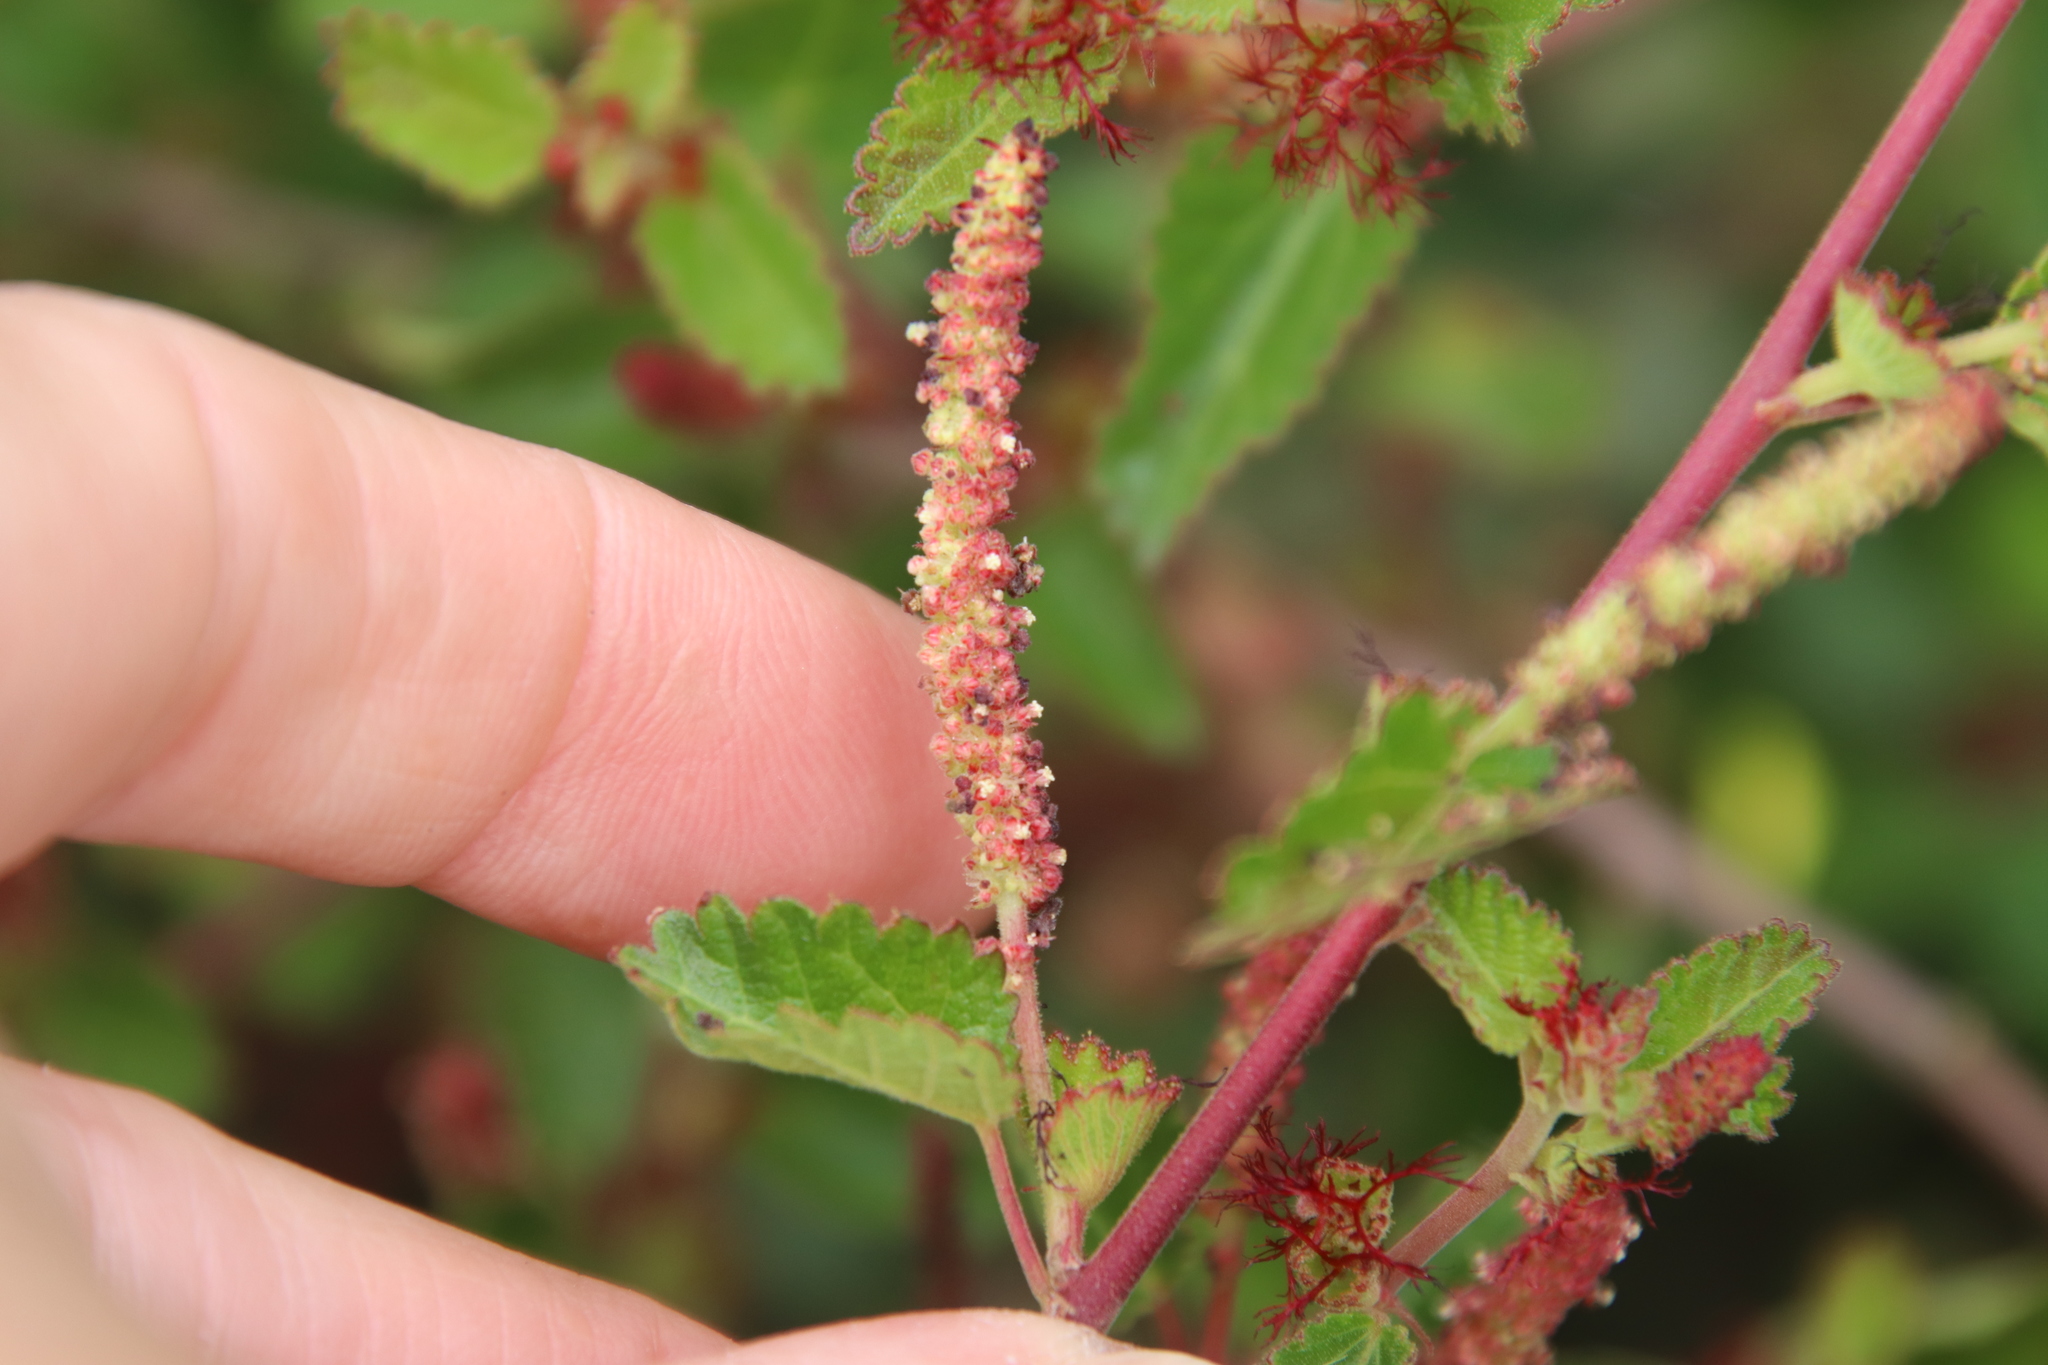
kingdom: Plantae
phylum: Tracheophyta
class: Magnoliopsida
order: Malpighiales
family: Euphorbiaceae
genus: Acalypha
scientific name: Acalypha californica
